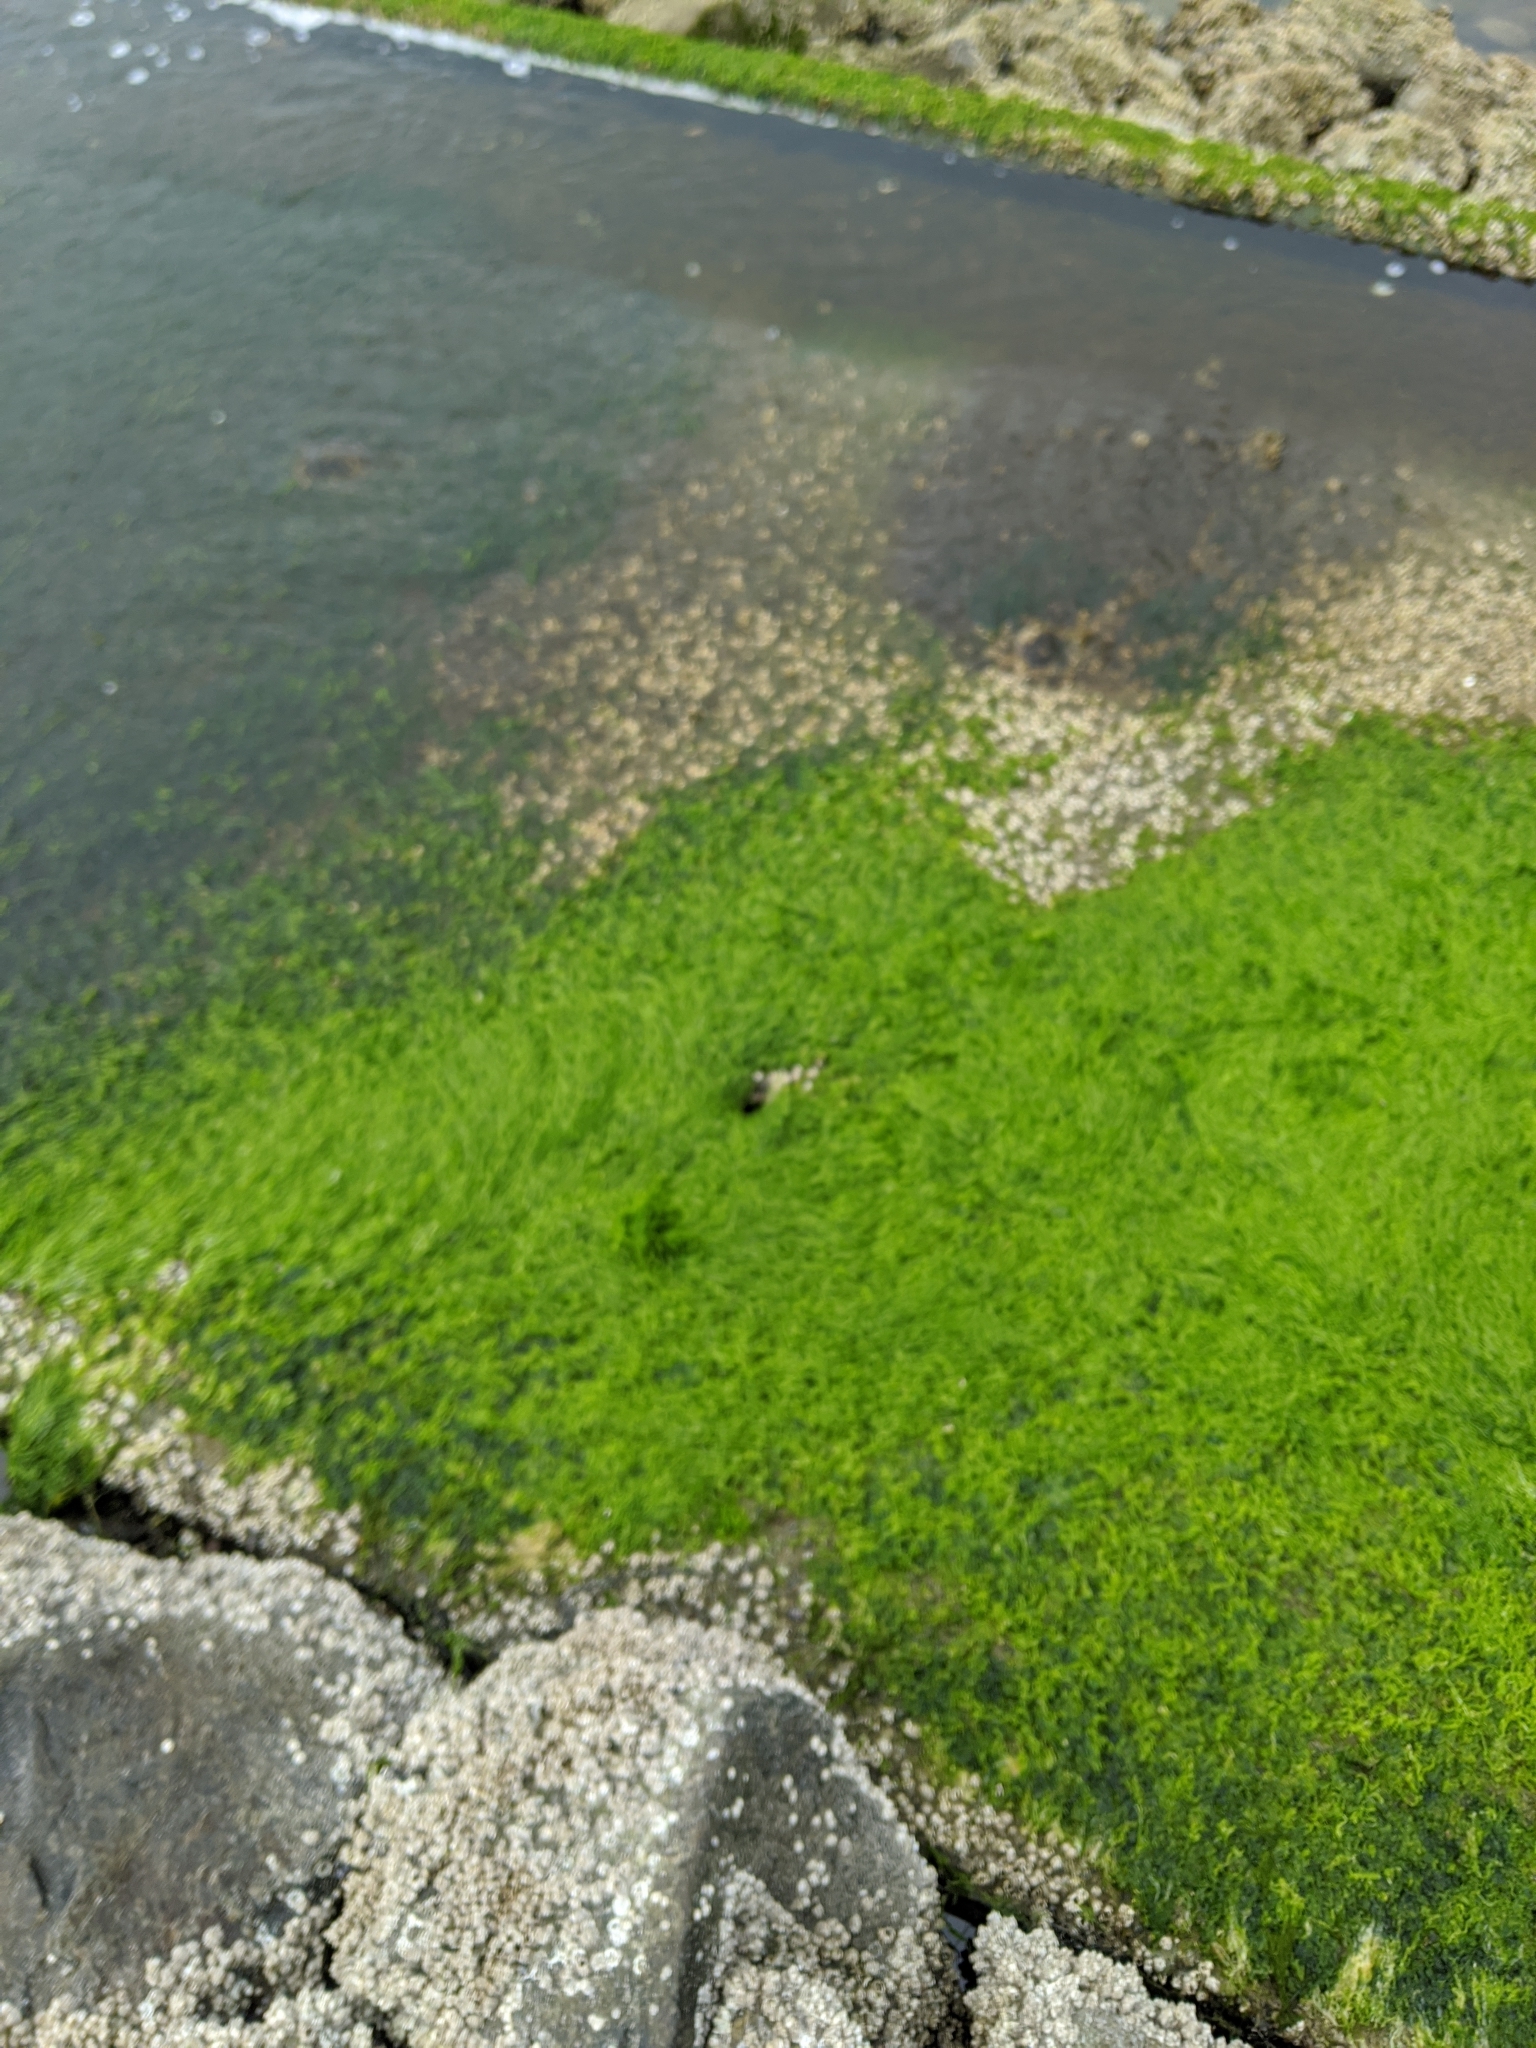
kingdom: Plantae
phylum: Chlorophyta
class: Ulvophyceae
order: Ulvales
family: Ulvaceae
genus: Ulva
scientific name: Ulva intestinalis
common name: Gut weed
